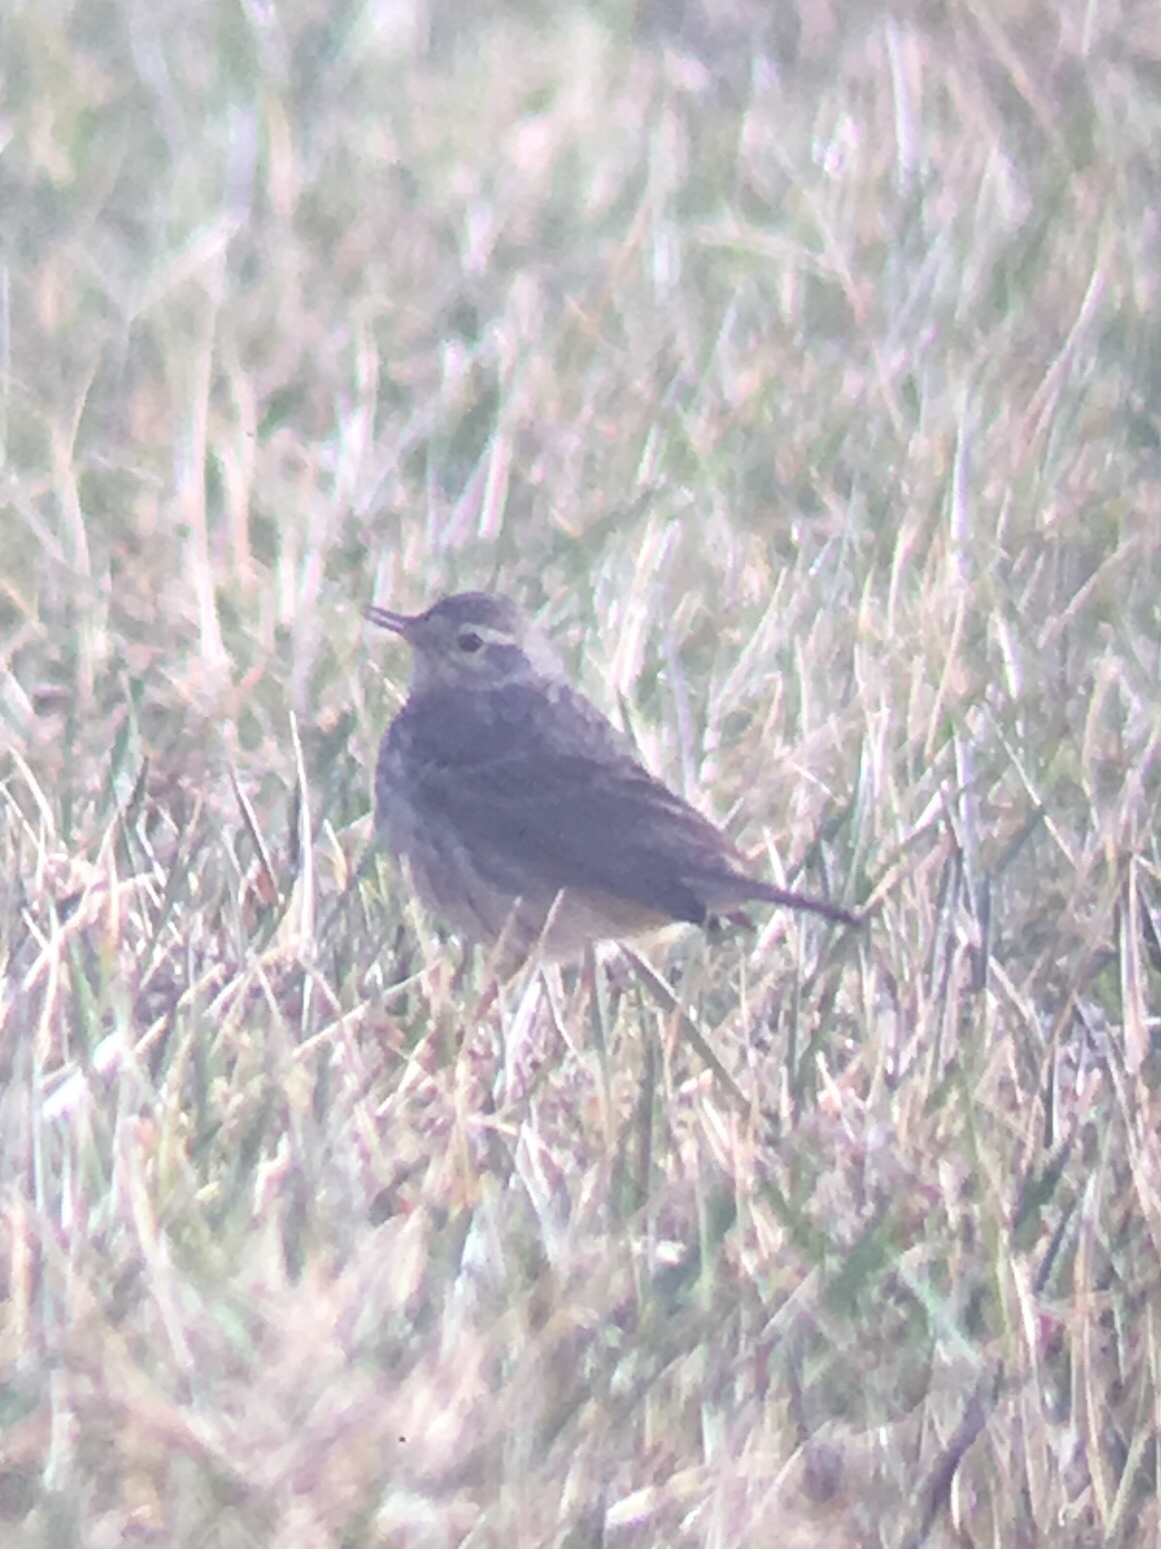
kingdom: Animalia
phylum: Chordata
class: Aves
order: Passeriformes
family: Motacillidae
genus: Anthus
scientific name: Anthus rubescens
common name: Buff-bellied pipit
